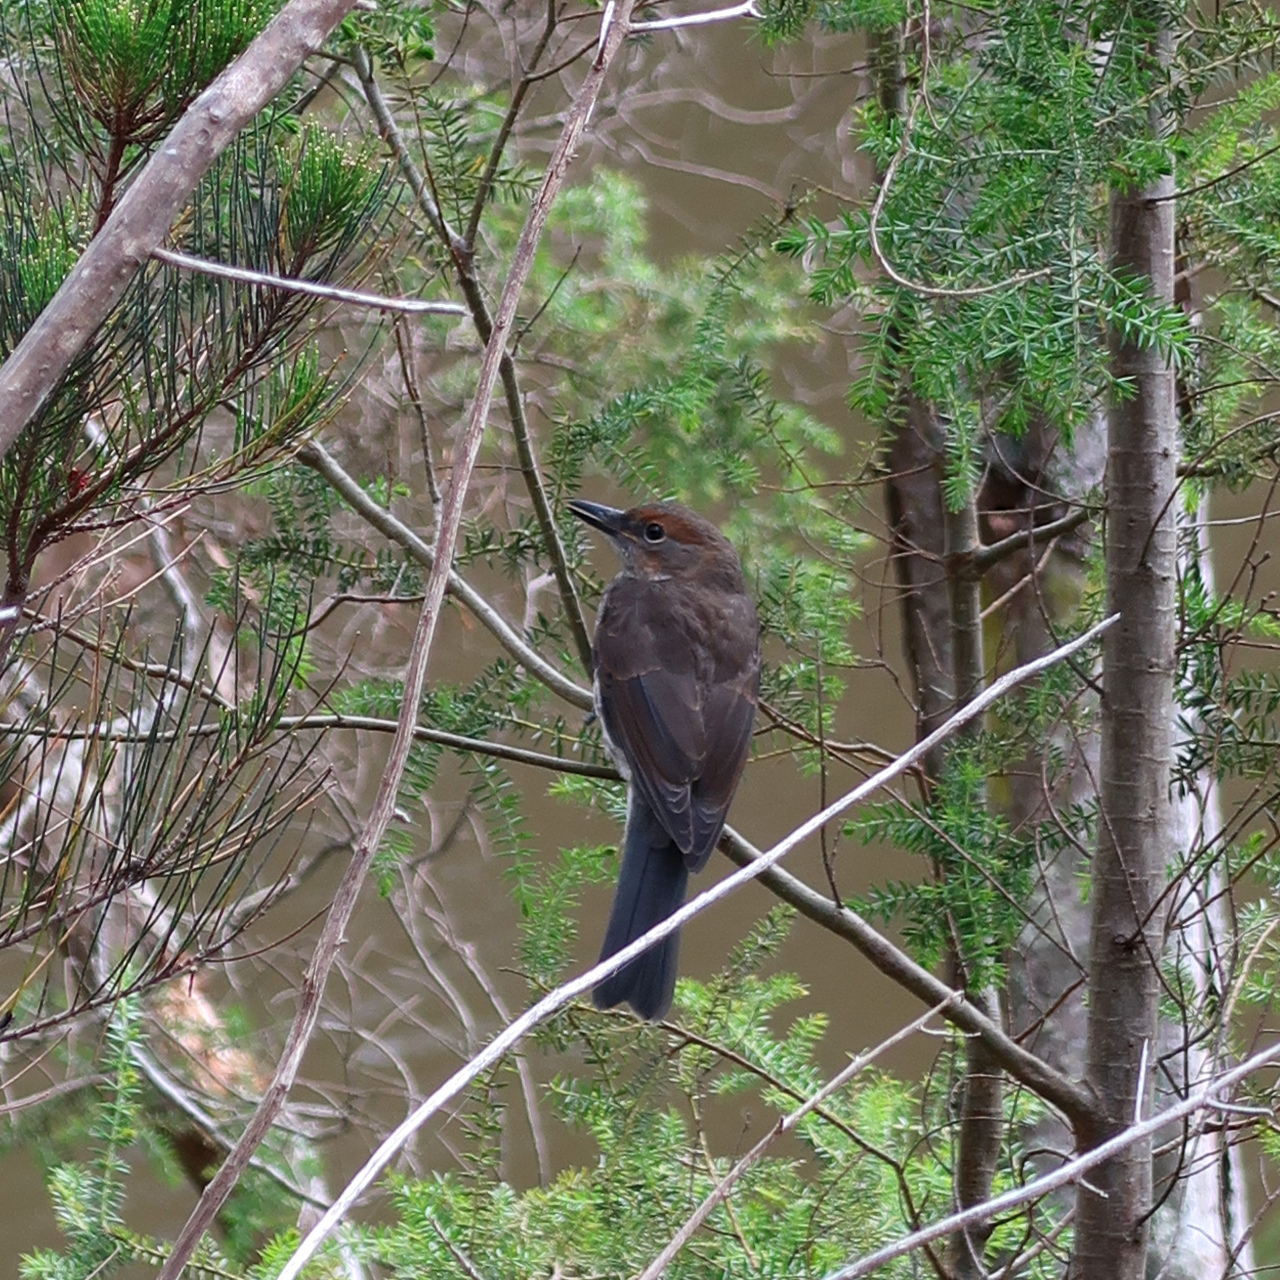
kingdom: Animalia
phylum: Chordata
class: Aves
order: Passeriformes
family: Pachycephalidae
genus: Colluricincla
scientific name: Colluricincla harmonica
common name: Grey shrikethrush
